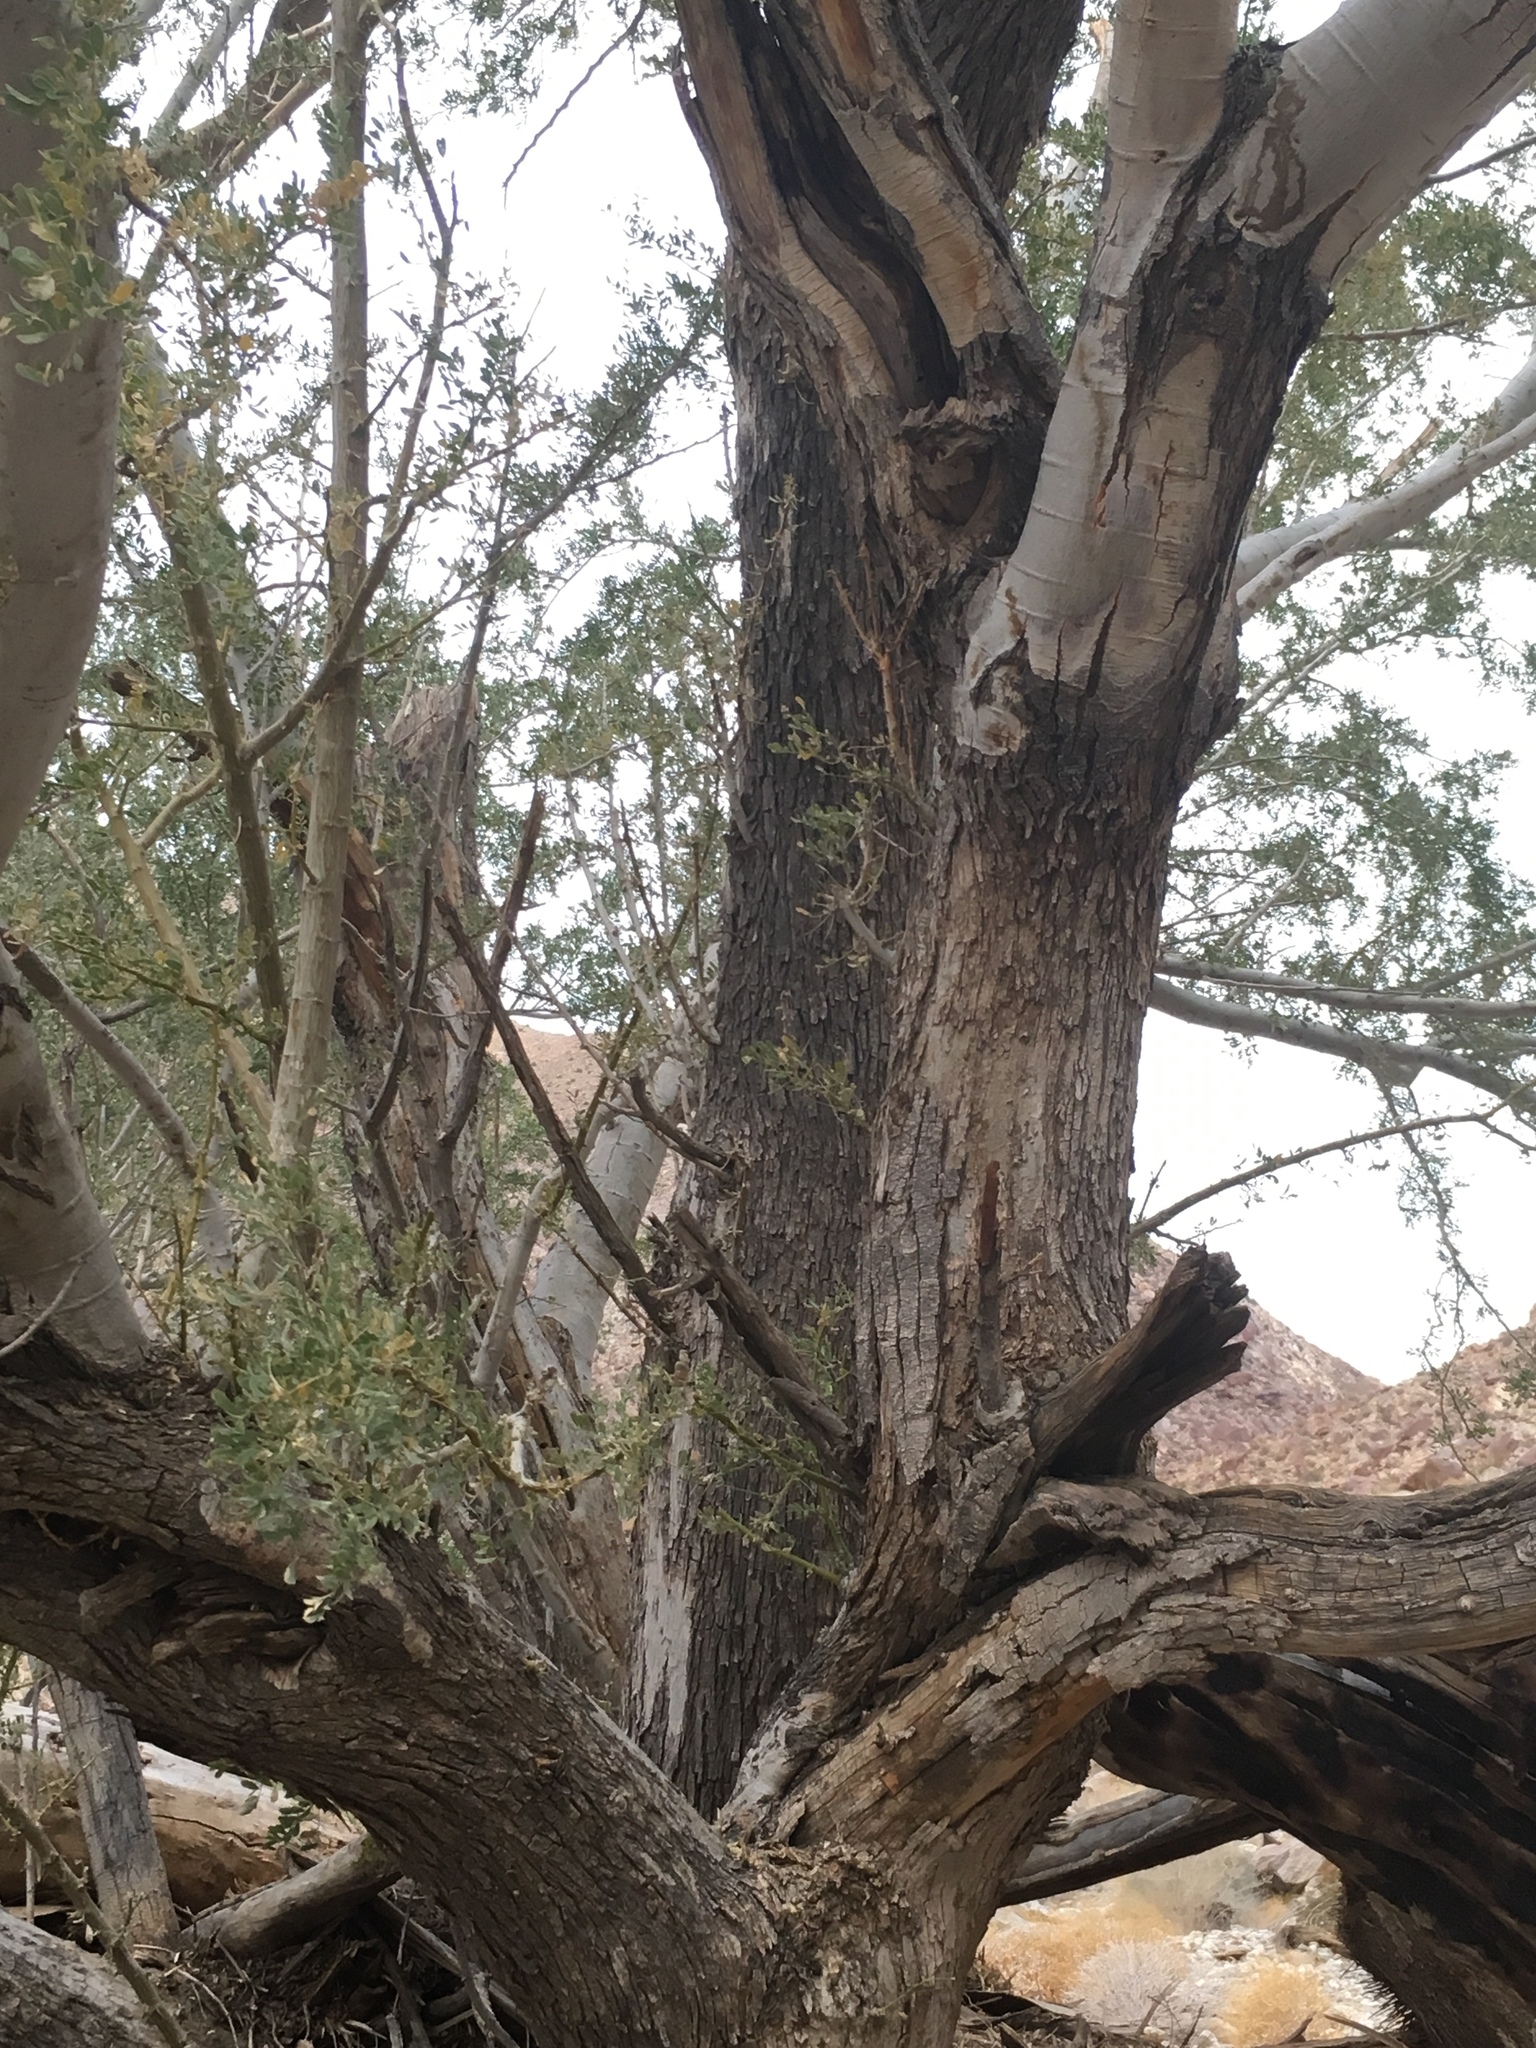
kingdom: Plantae
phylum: Tracheophyta
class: Magnoliopsida
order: Fabales
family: Fabaceae
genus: Olneya
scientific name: Olneya tesota
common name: Desert ironwood
